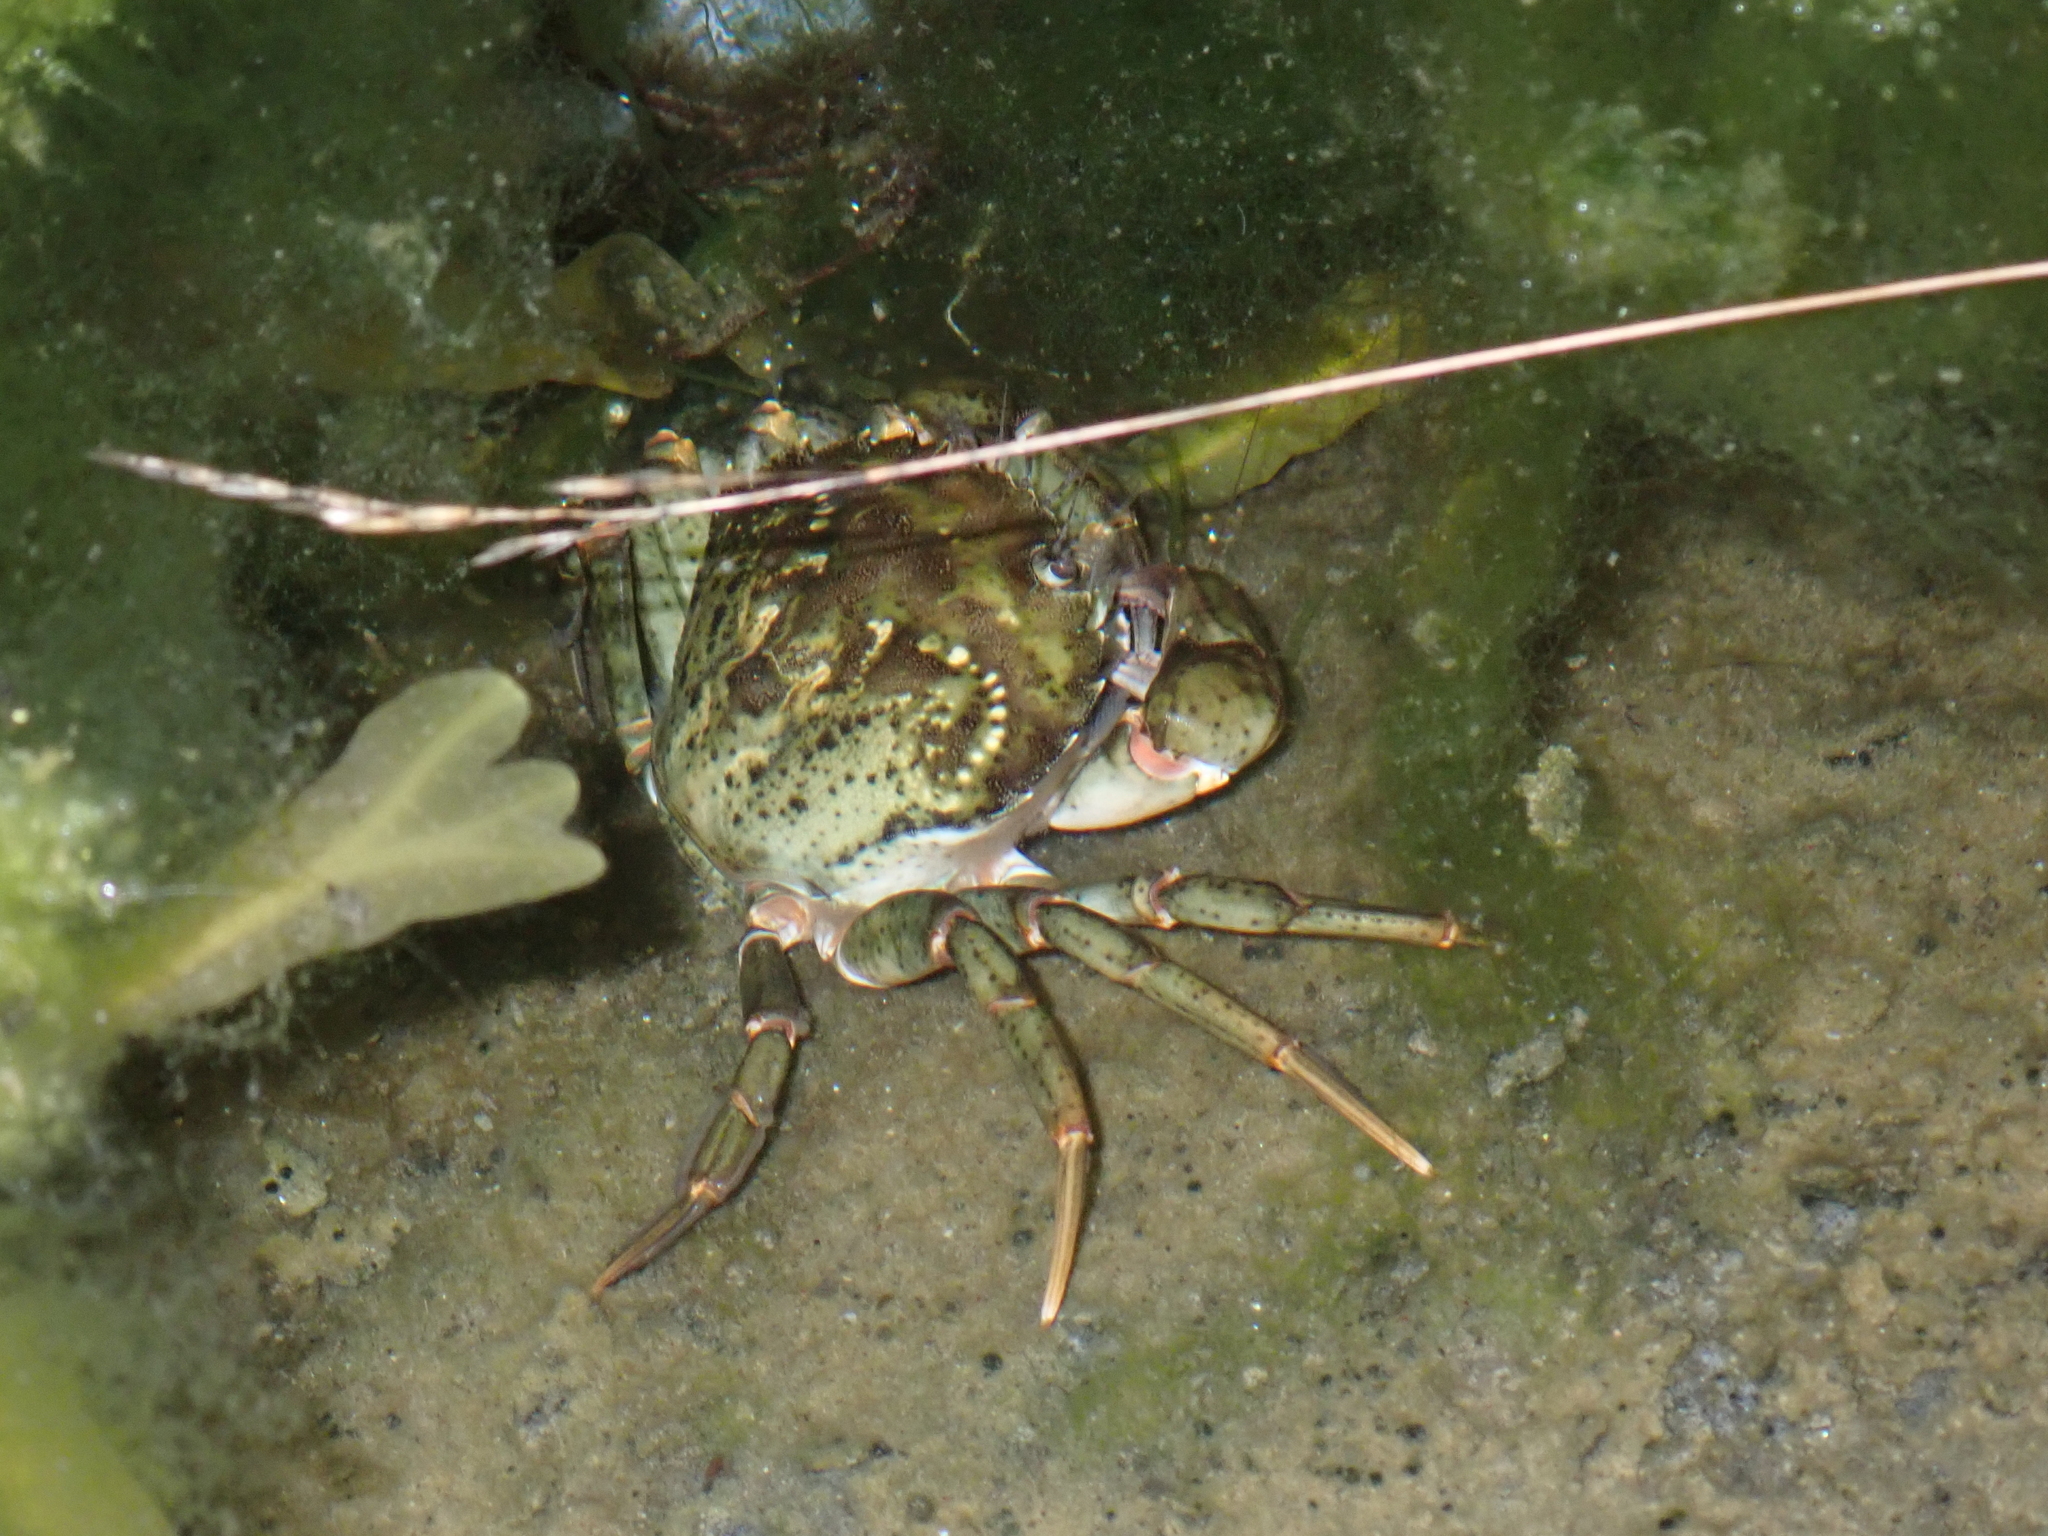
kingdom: Animalia
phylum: Arthropoda
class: Malacostraca
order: Decapoda
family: Carcinidae
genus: Carcinus
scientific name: Carcinus maenas
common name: European green crab
